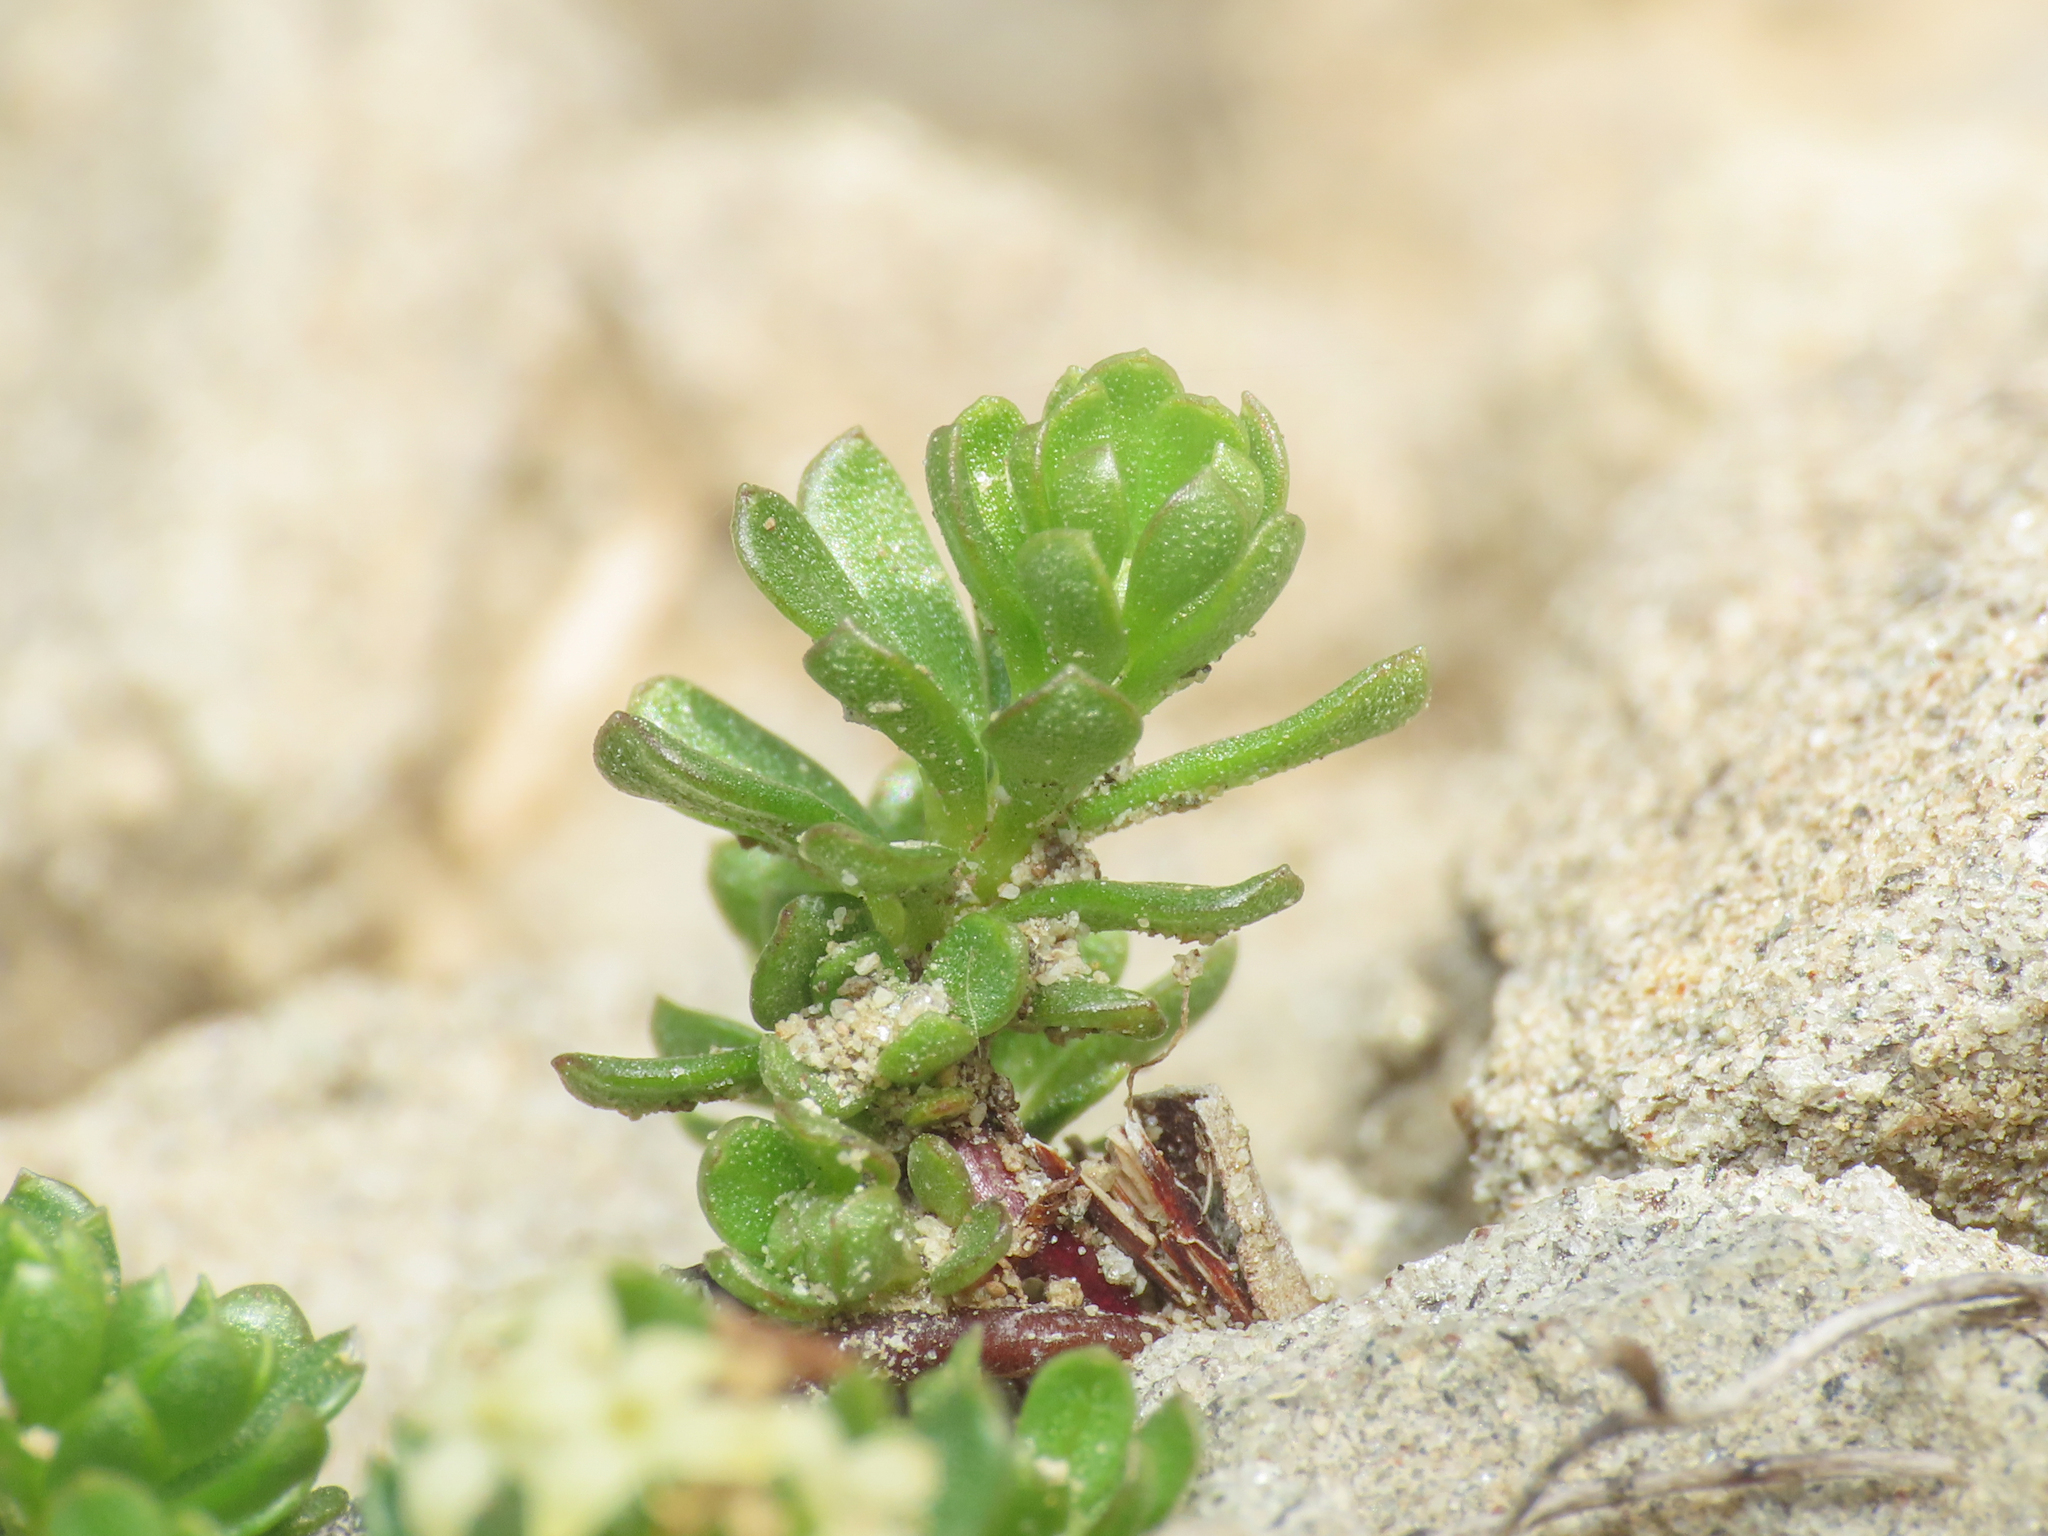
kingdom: Plantae
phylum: Tracheophyta
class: Magnoliopsida
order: Gentianales
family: Rubiaceae
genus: Galium
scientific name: Galium magellense
